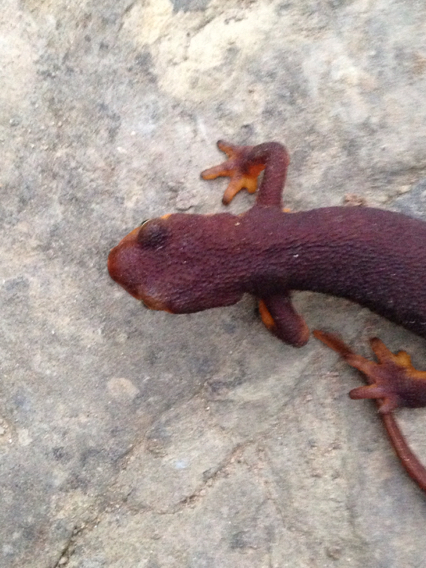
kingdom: Animalia
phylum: Chordata
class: Amphibia
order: Caudata
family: Salamandridae
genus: Taricha
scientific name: Taricha torosa
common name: California newt
